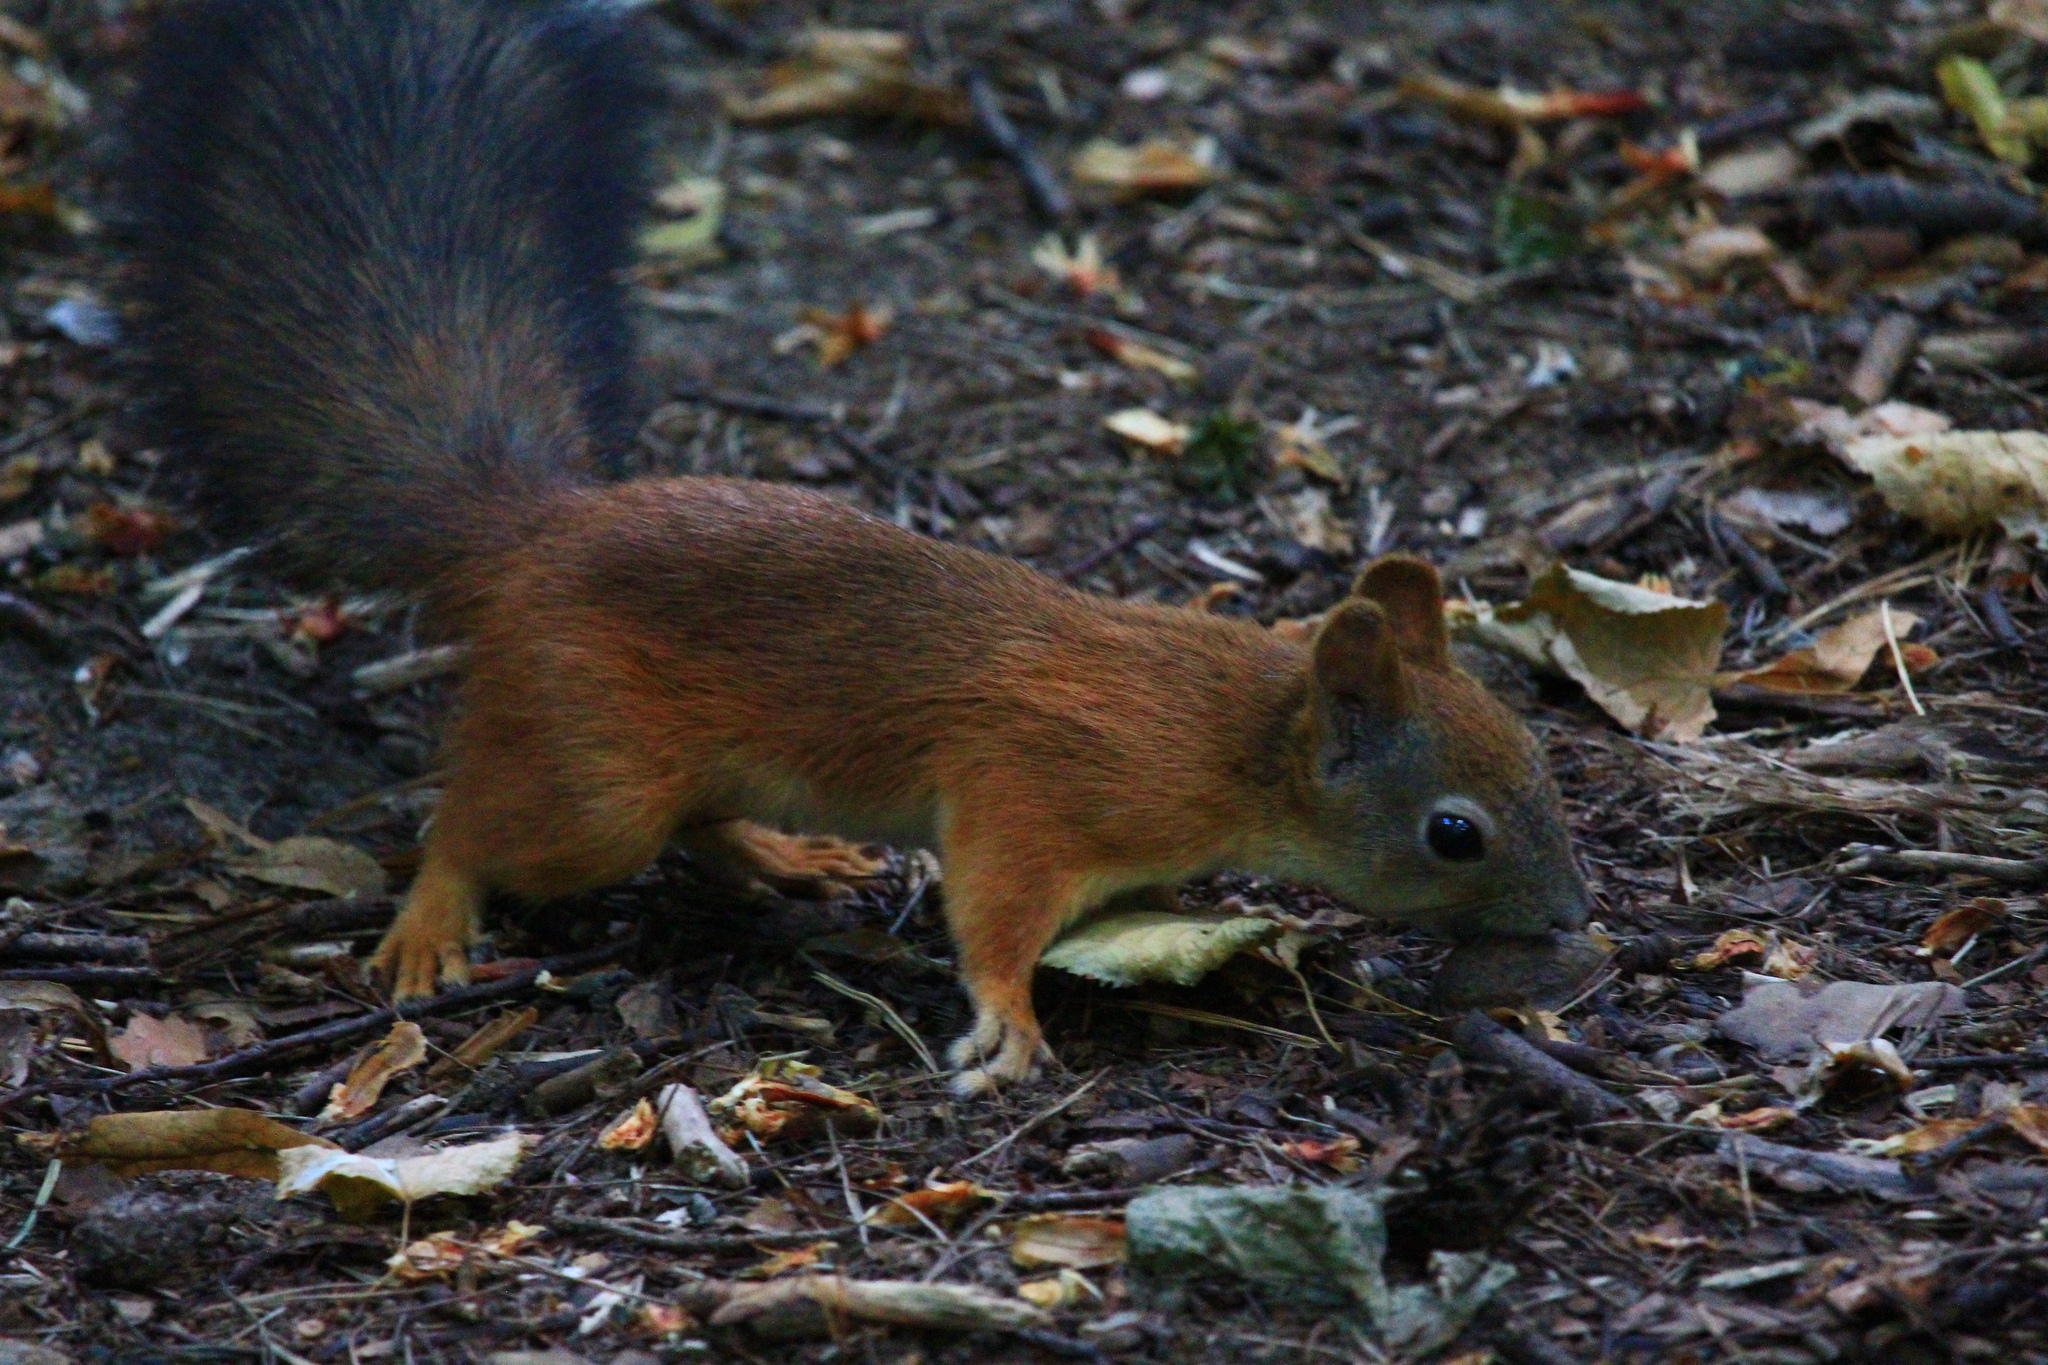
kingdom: Animalia
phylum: Chordata
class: Mammalia
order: Rodentia
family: Sciuridae
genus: Sciurus
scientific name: Sciurus vulgaris
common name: Eurasian red squirrel
